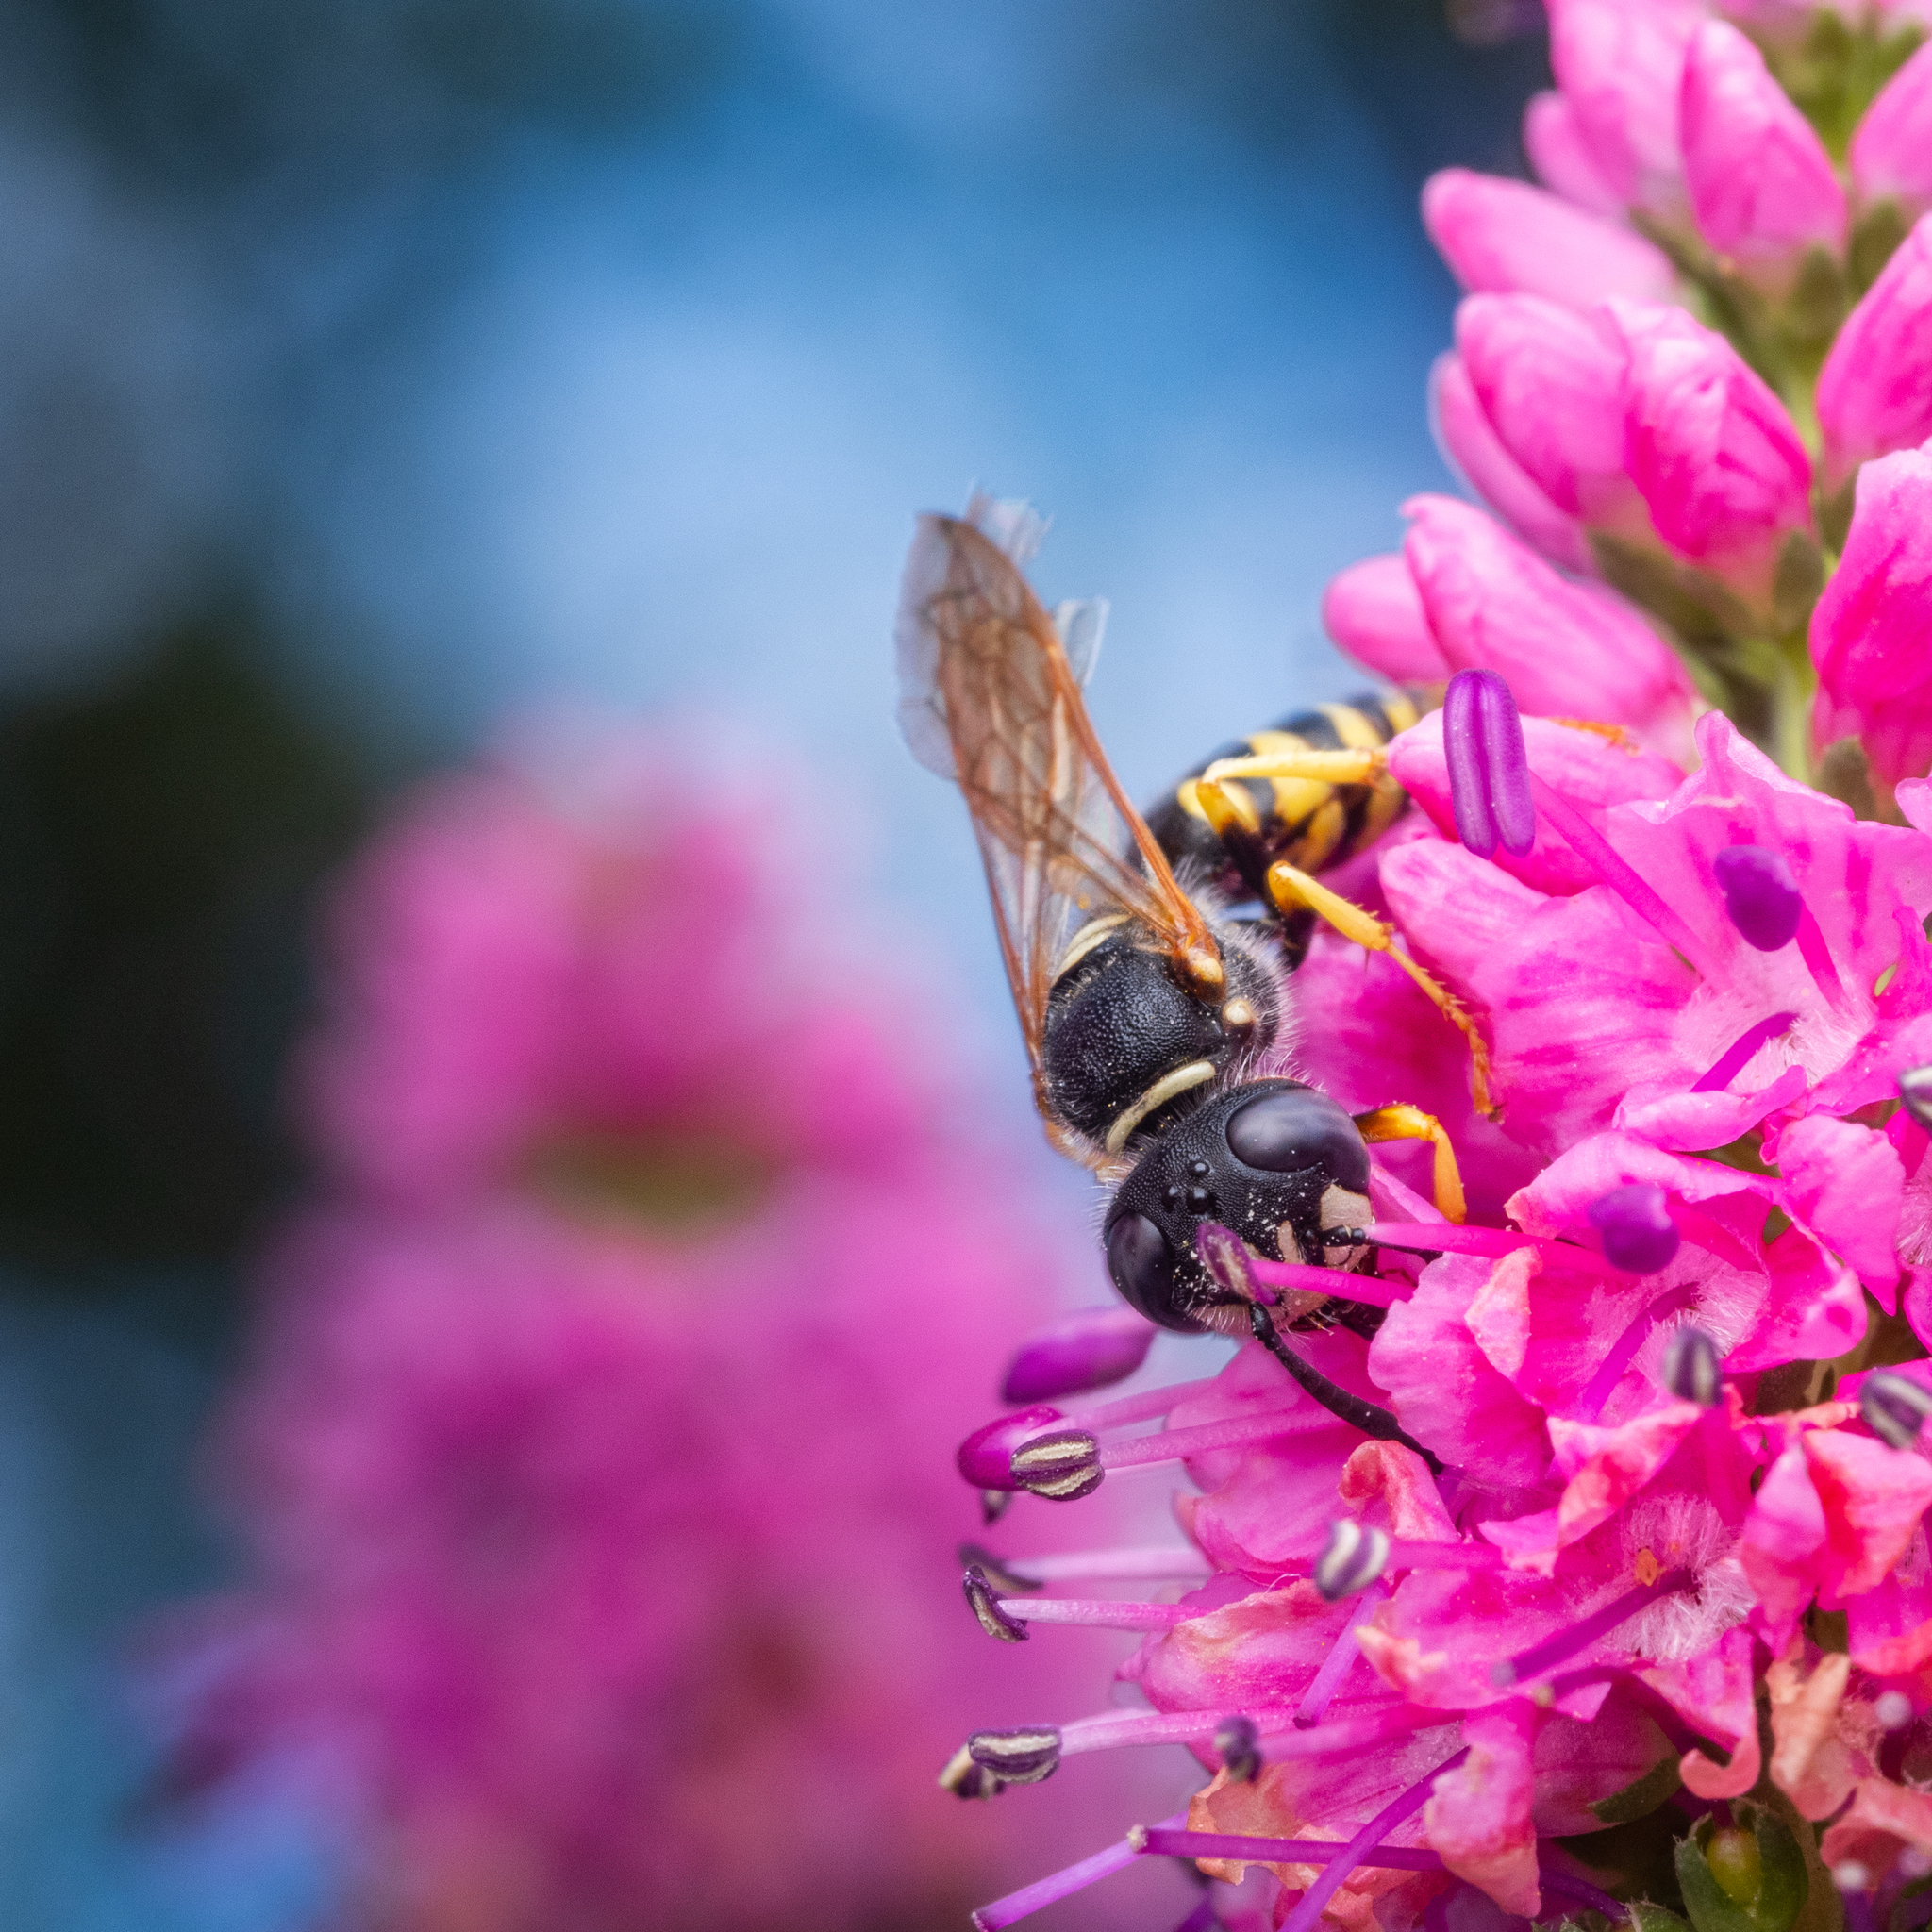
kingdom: Animalia
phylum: Arthropoda
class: Insecta
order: Hymenoptera
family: Crabronidae
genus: Philanthus
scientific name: Philanthus triangulum
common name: Bee wolf
